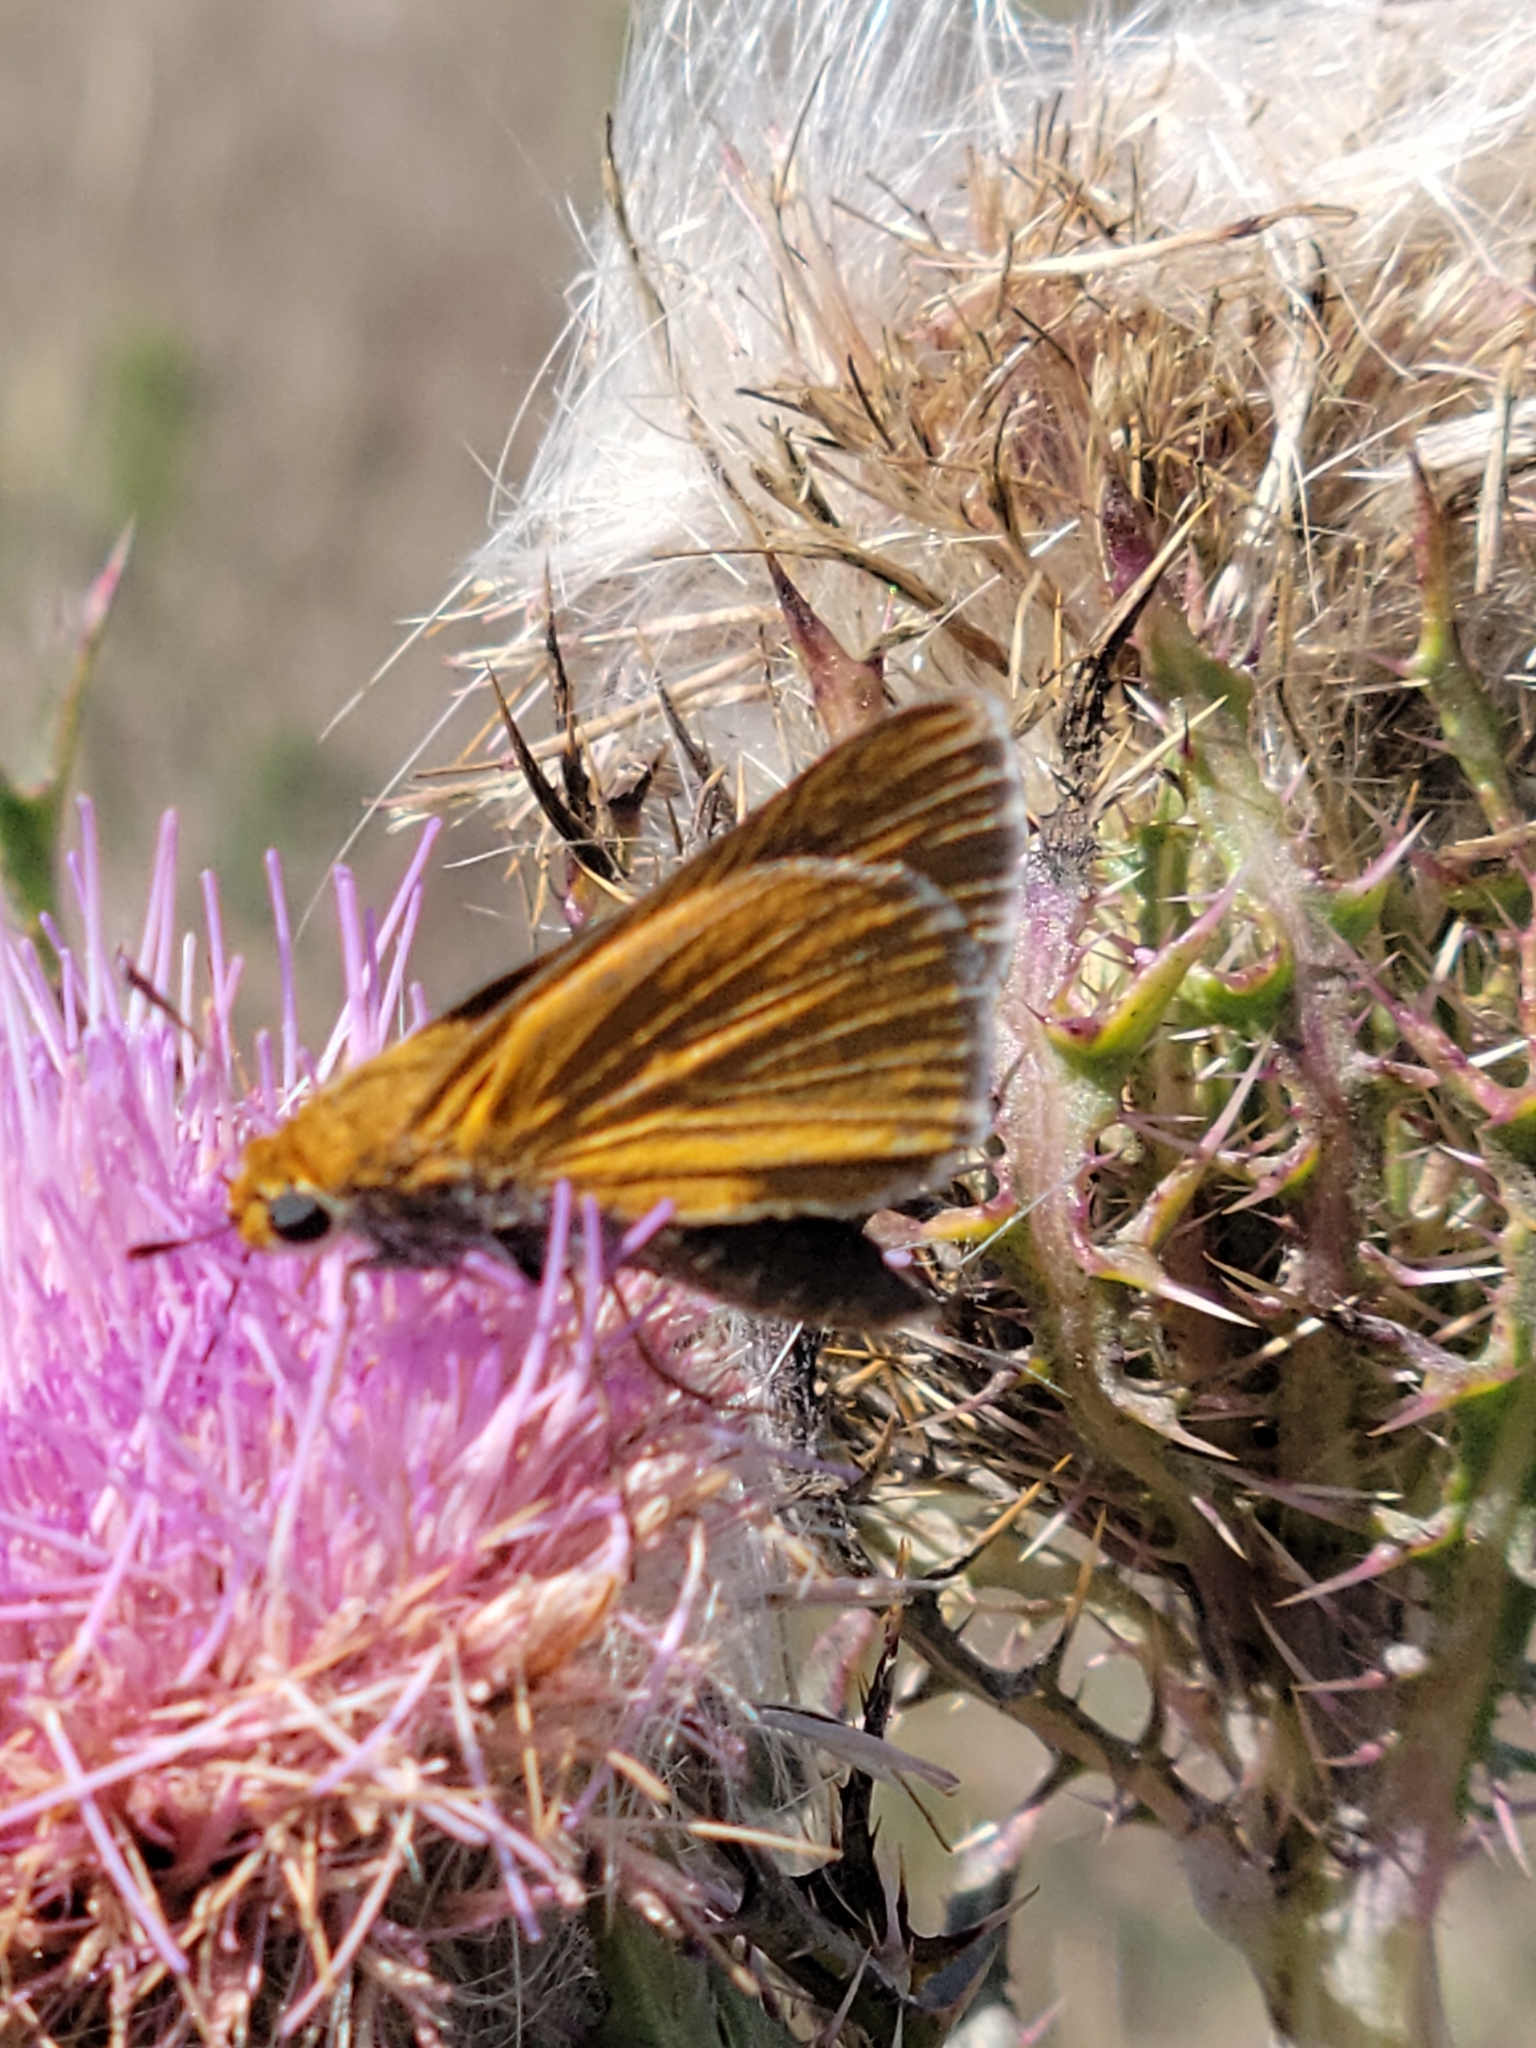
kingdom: Animalia
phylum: Arthropoda
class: Insecta
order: Lepidoptera
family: Hesperiidae
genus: Euphyes
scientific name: Euphyes arpa
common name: Palmetto skipper
